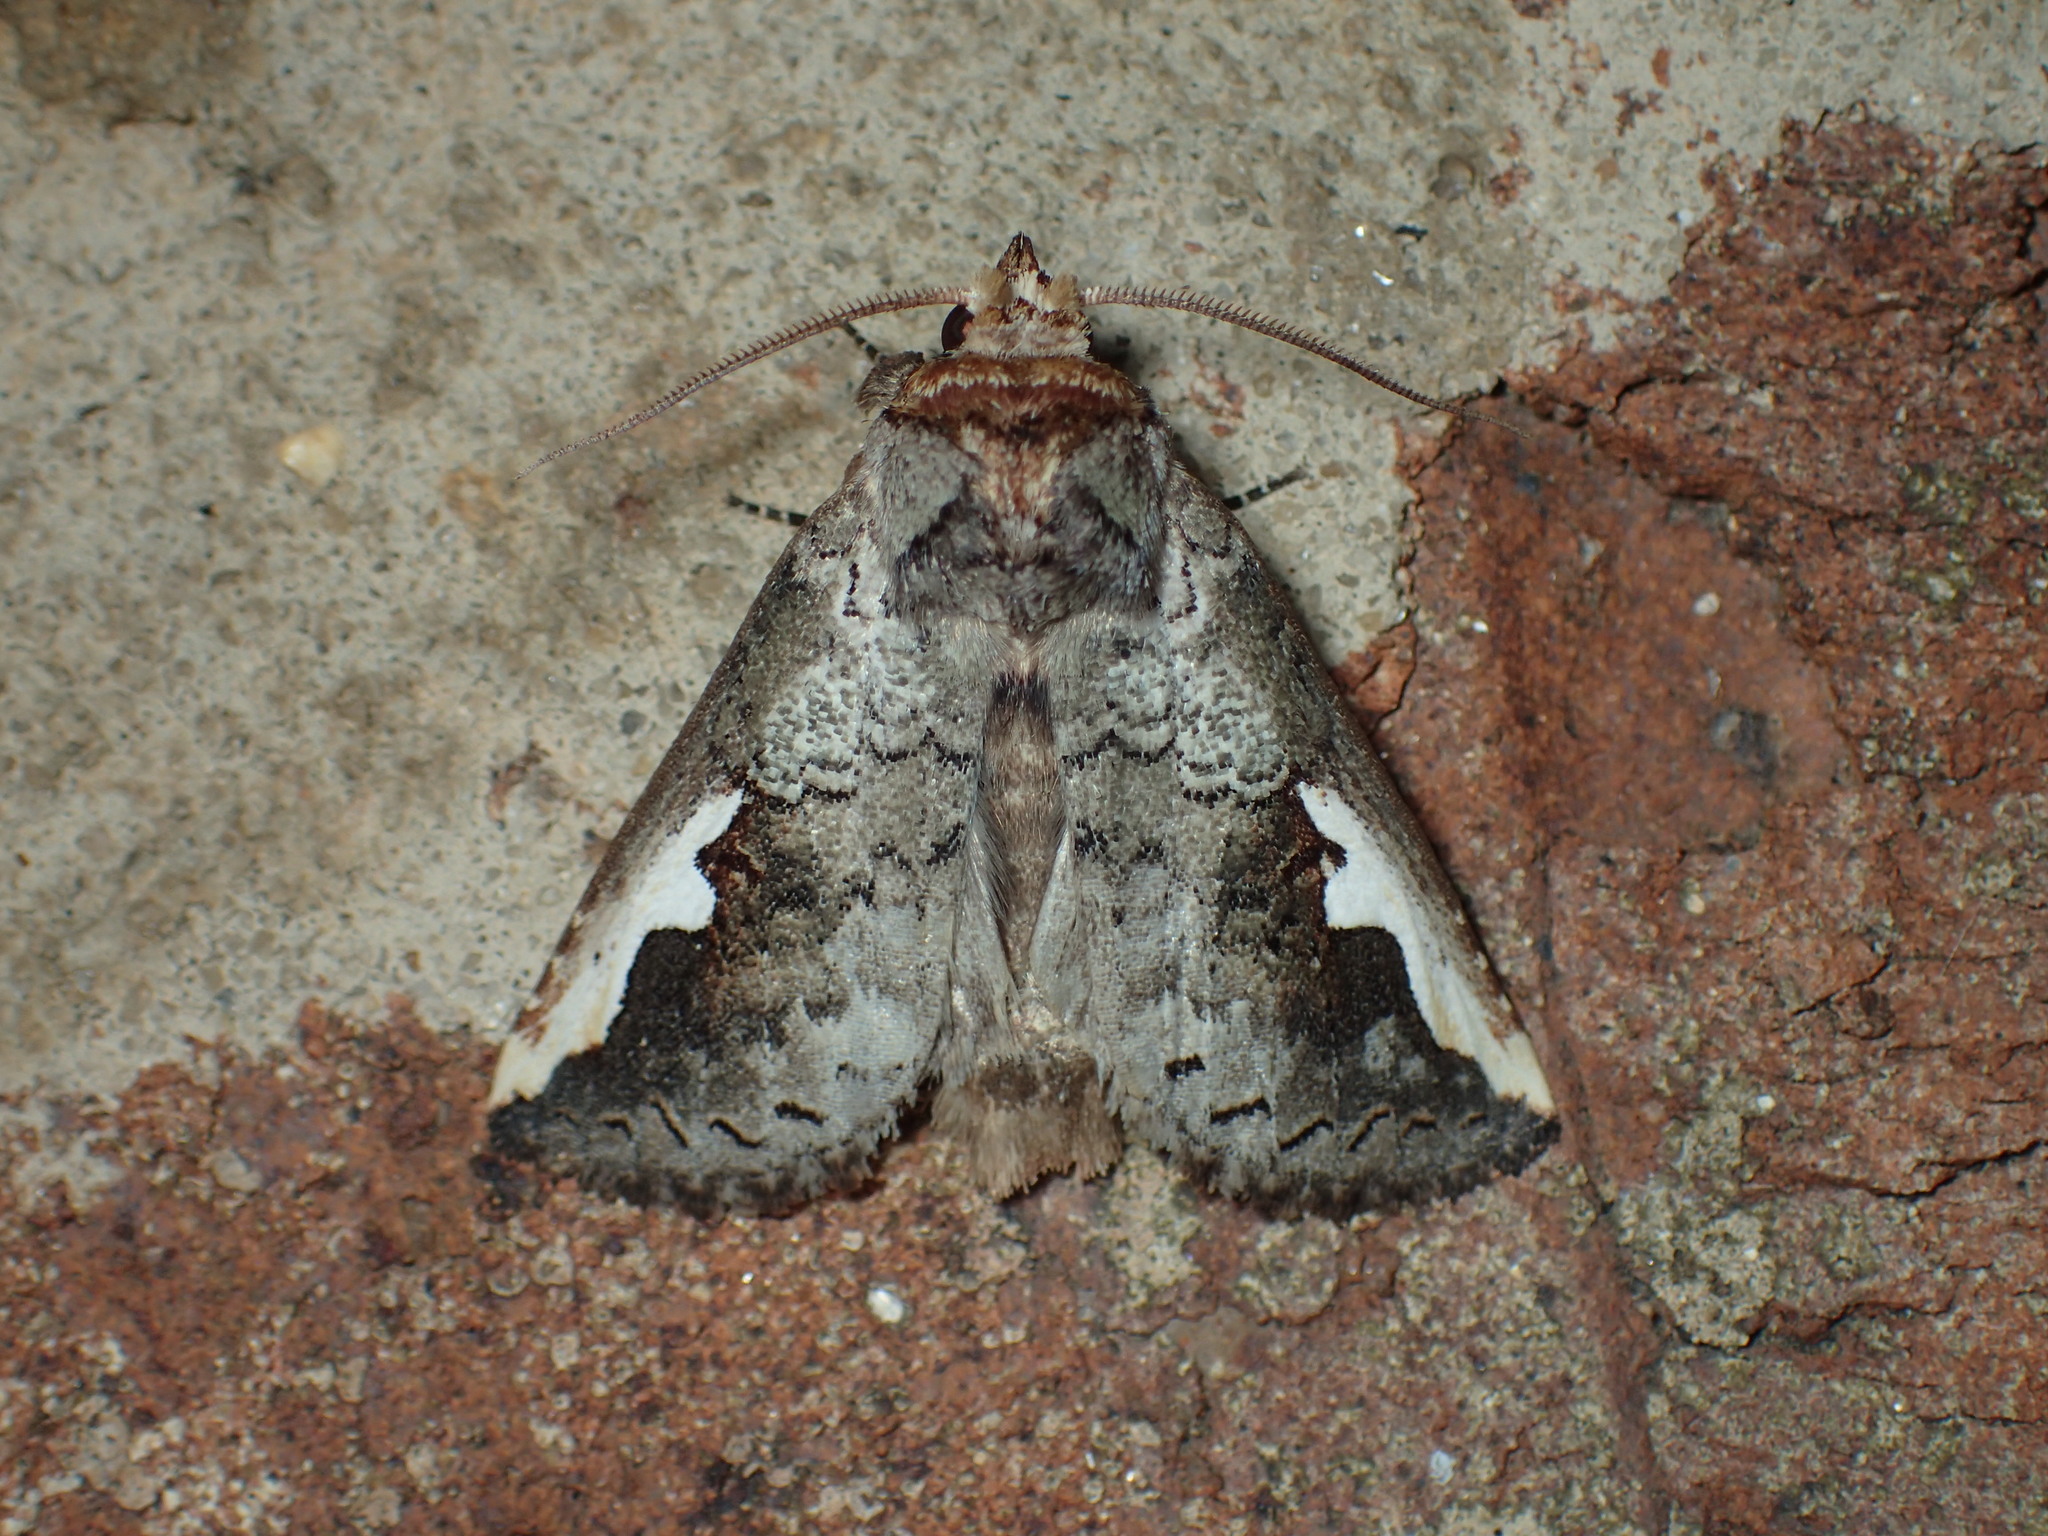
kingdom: Animalia
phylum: Arthropoda
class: Insecta
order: Lepidoptera
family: Notodontidae
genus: Symmerista
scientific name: Symmerista
